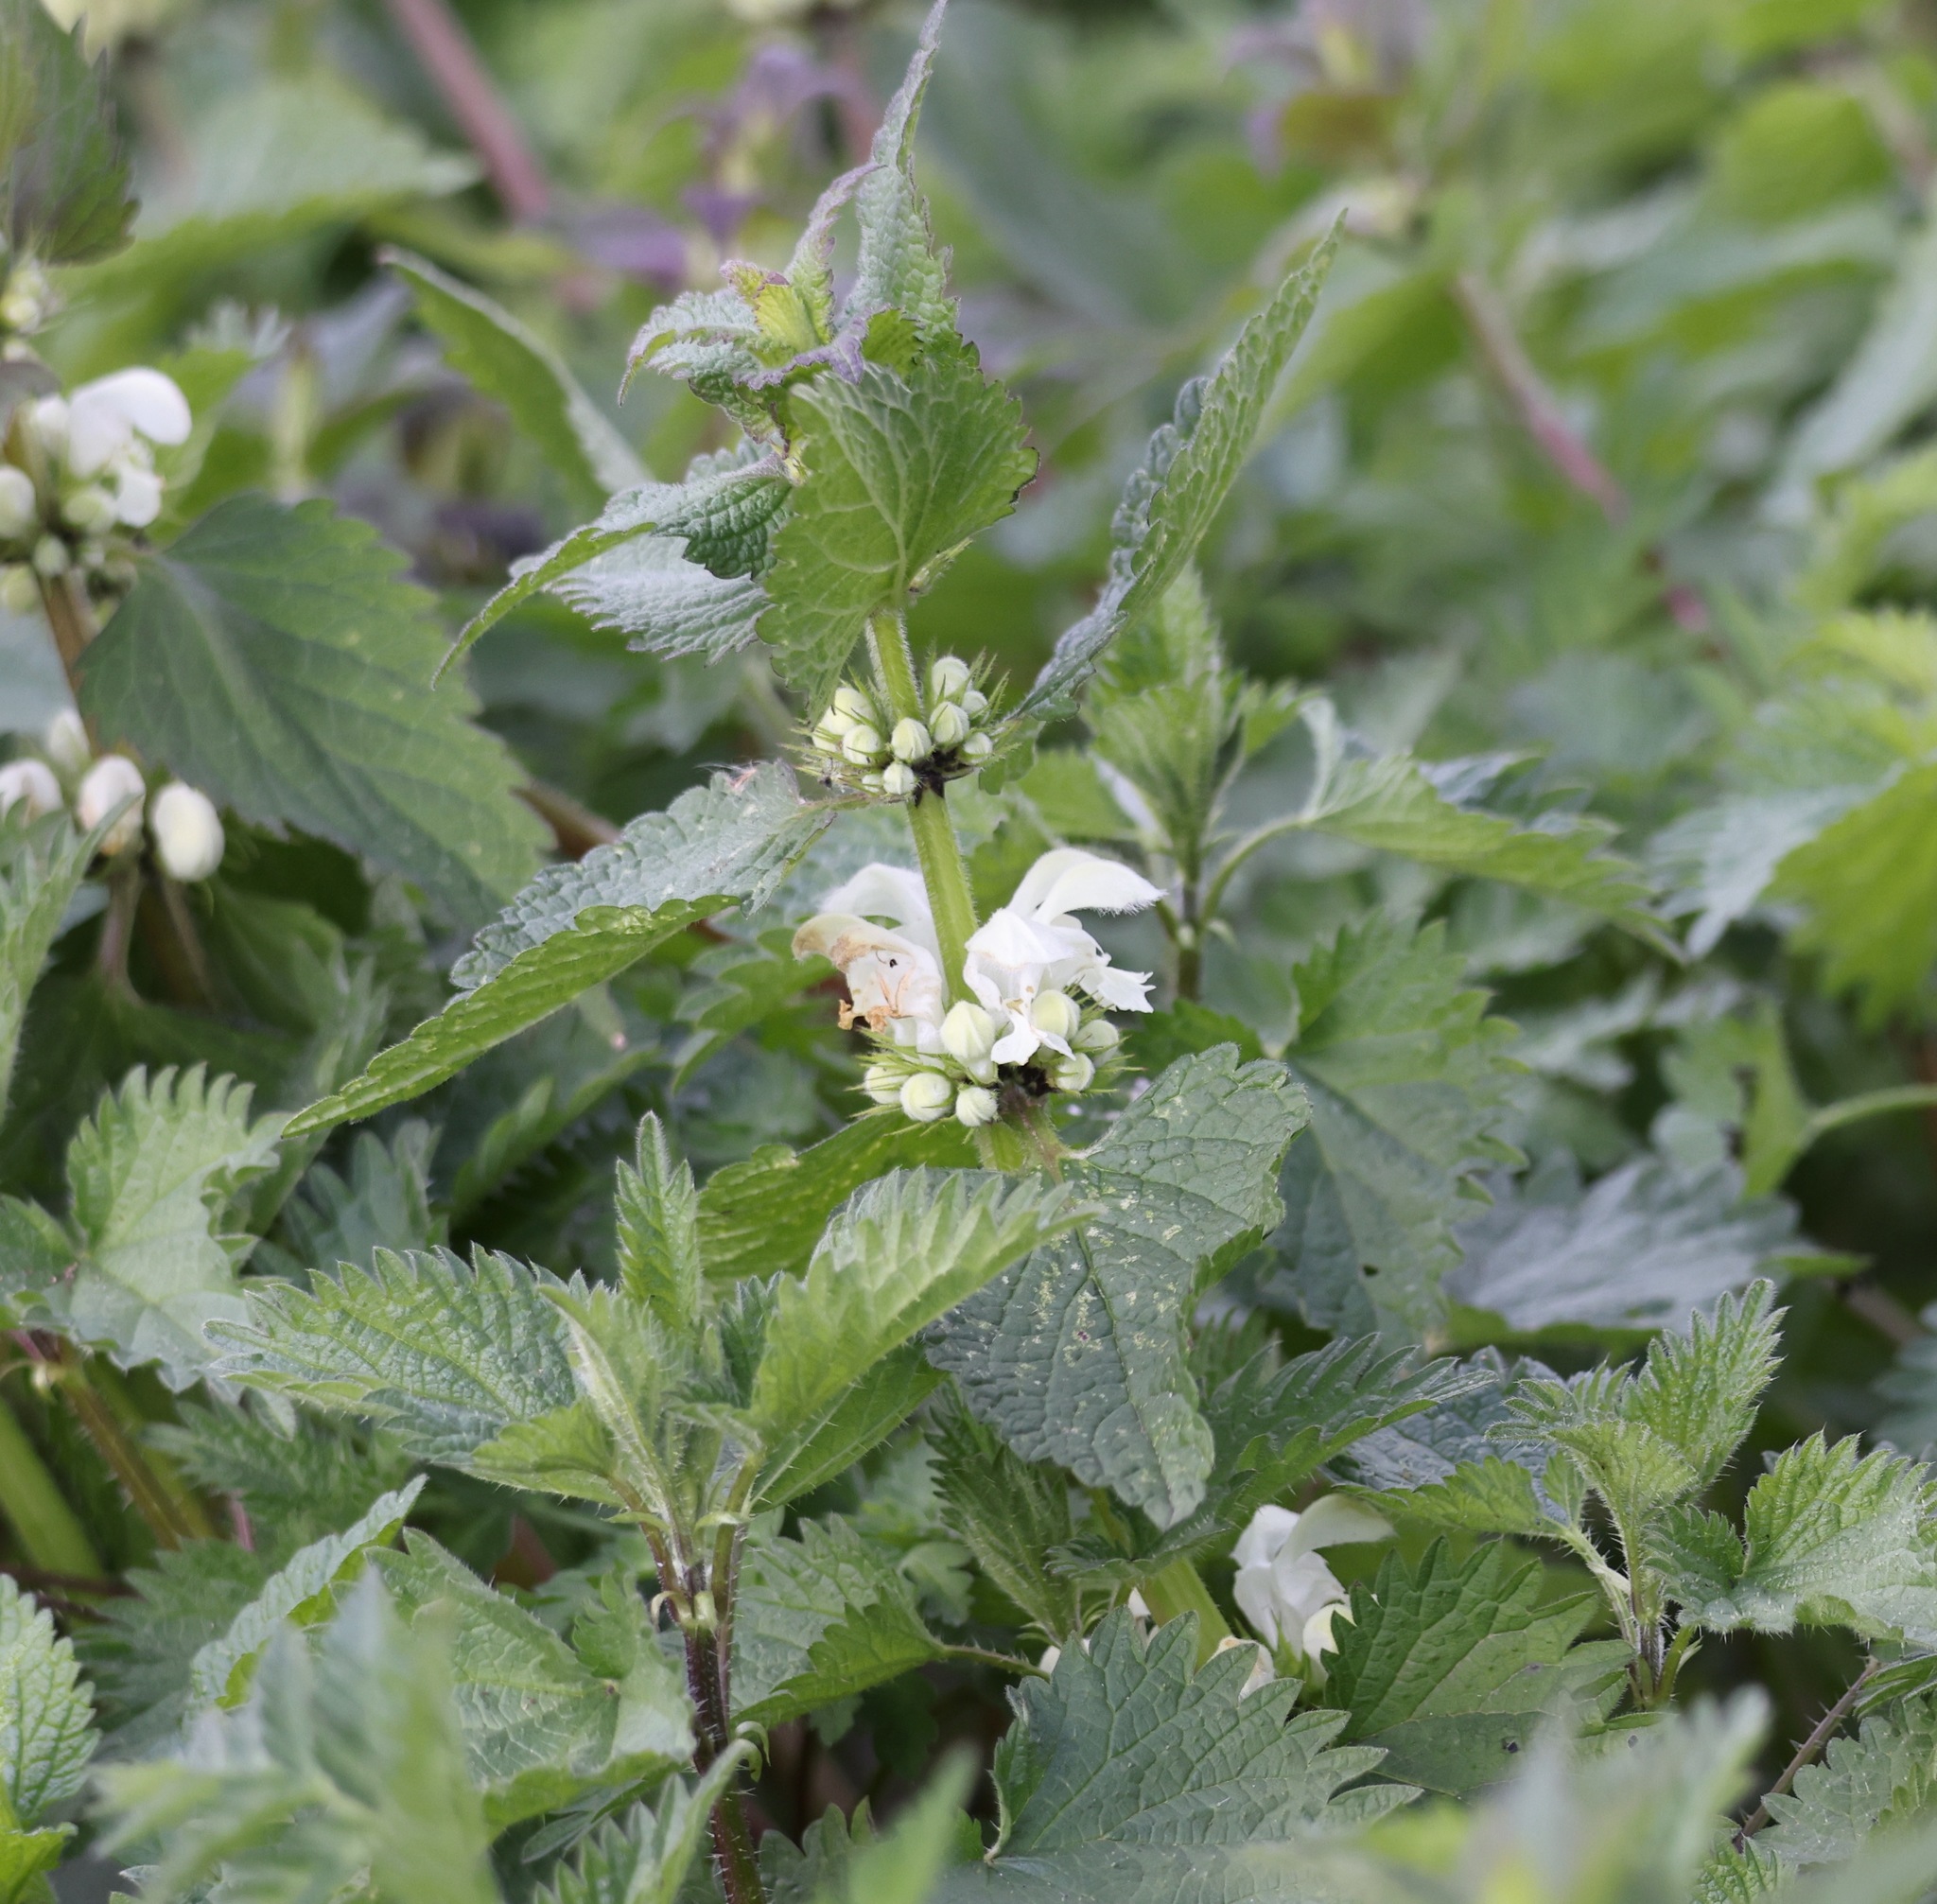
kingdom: Plantae
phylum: Tracheophyta
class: Magnoliopsida
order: Lamiales
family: Lamiaceae
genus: Lamium
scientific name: Lamium album
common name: White dead-nettle
